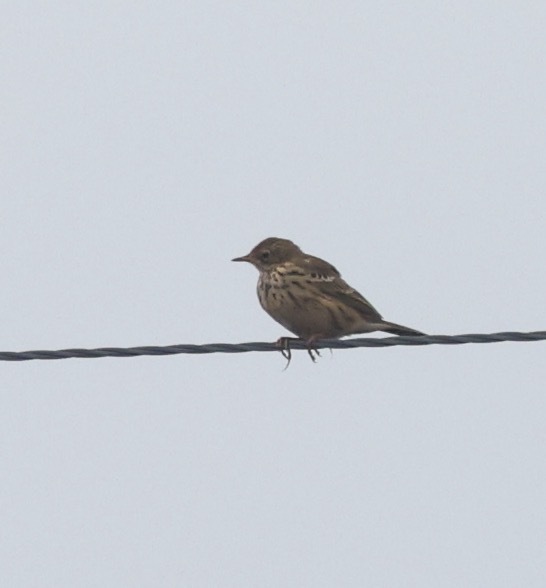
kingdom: Animalia
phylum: Chordata
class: Aves
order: Passeriformes
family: Motacillidae
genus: Anthus
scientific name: Anthus pratensis
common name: Meadow pipit
